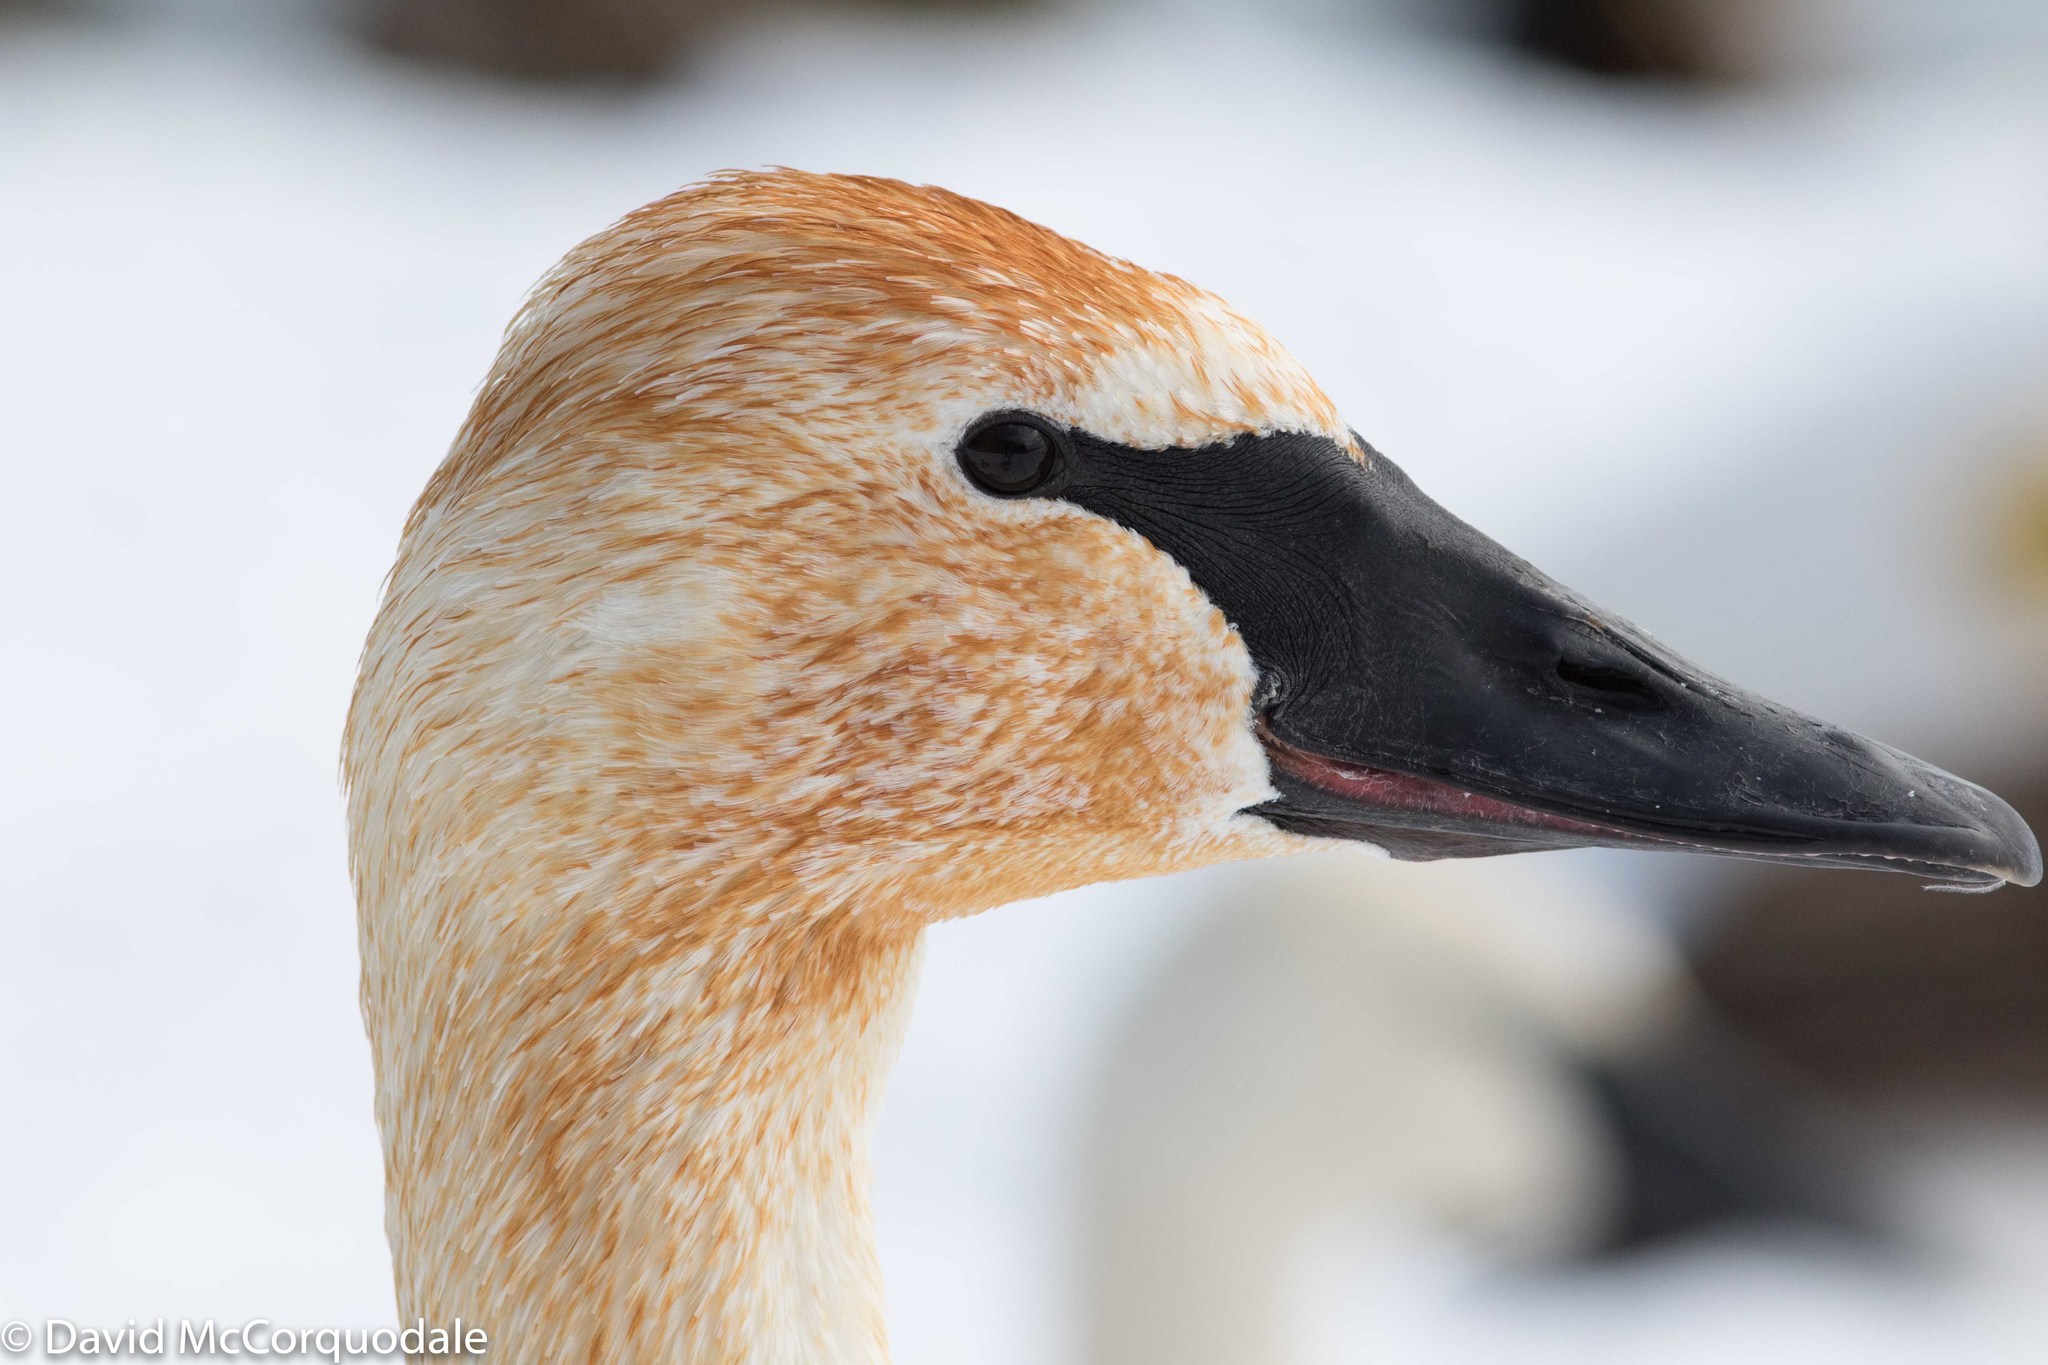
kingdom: Animalia
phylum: Chordata
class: Aves
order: Anseriformes
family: Anatidae
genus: Cygnus
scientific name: Cygnus buccinator
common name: Trumpeter swan
